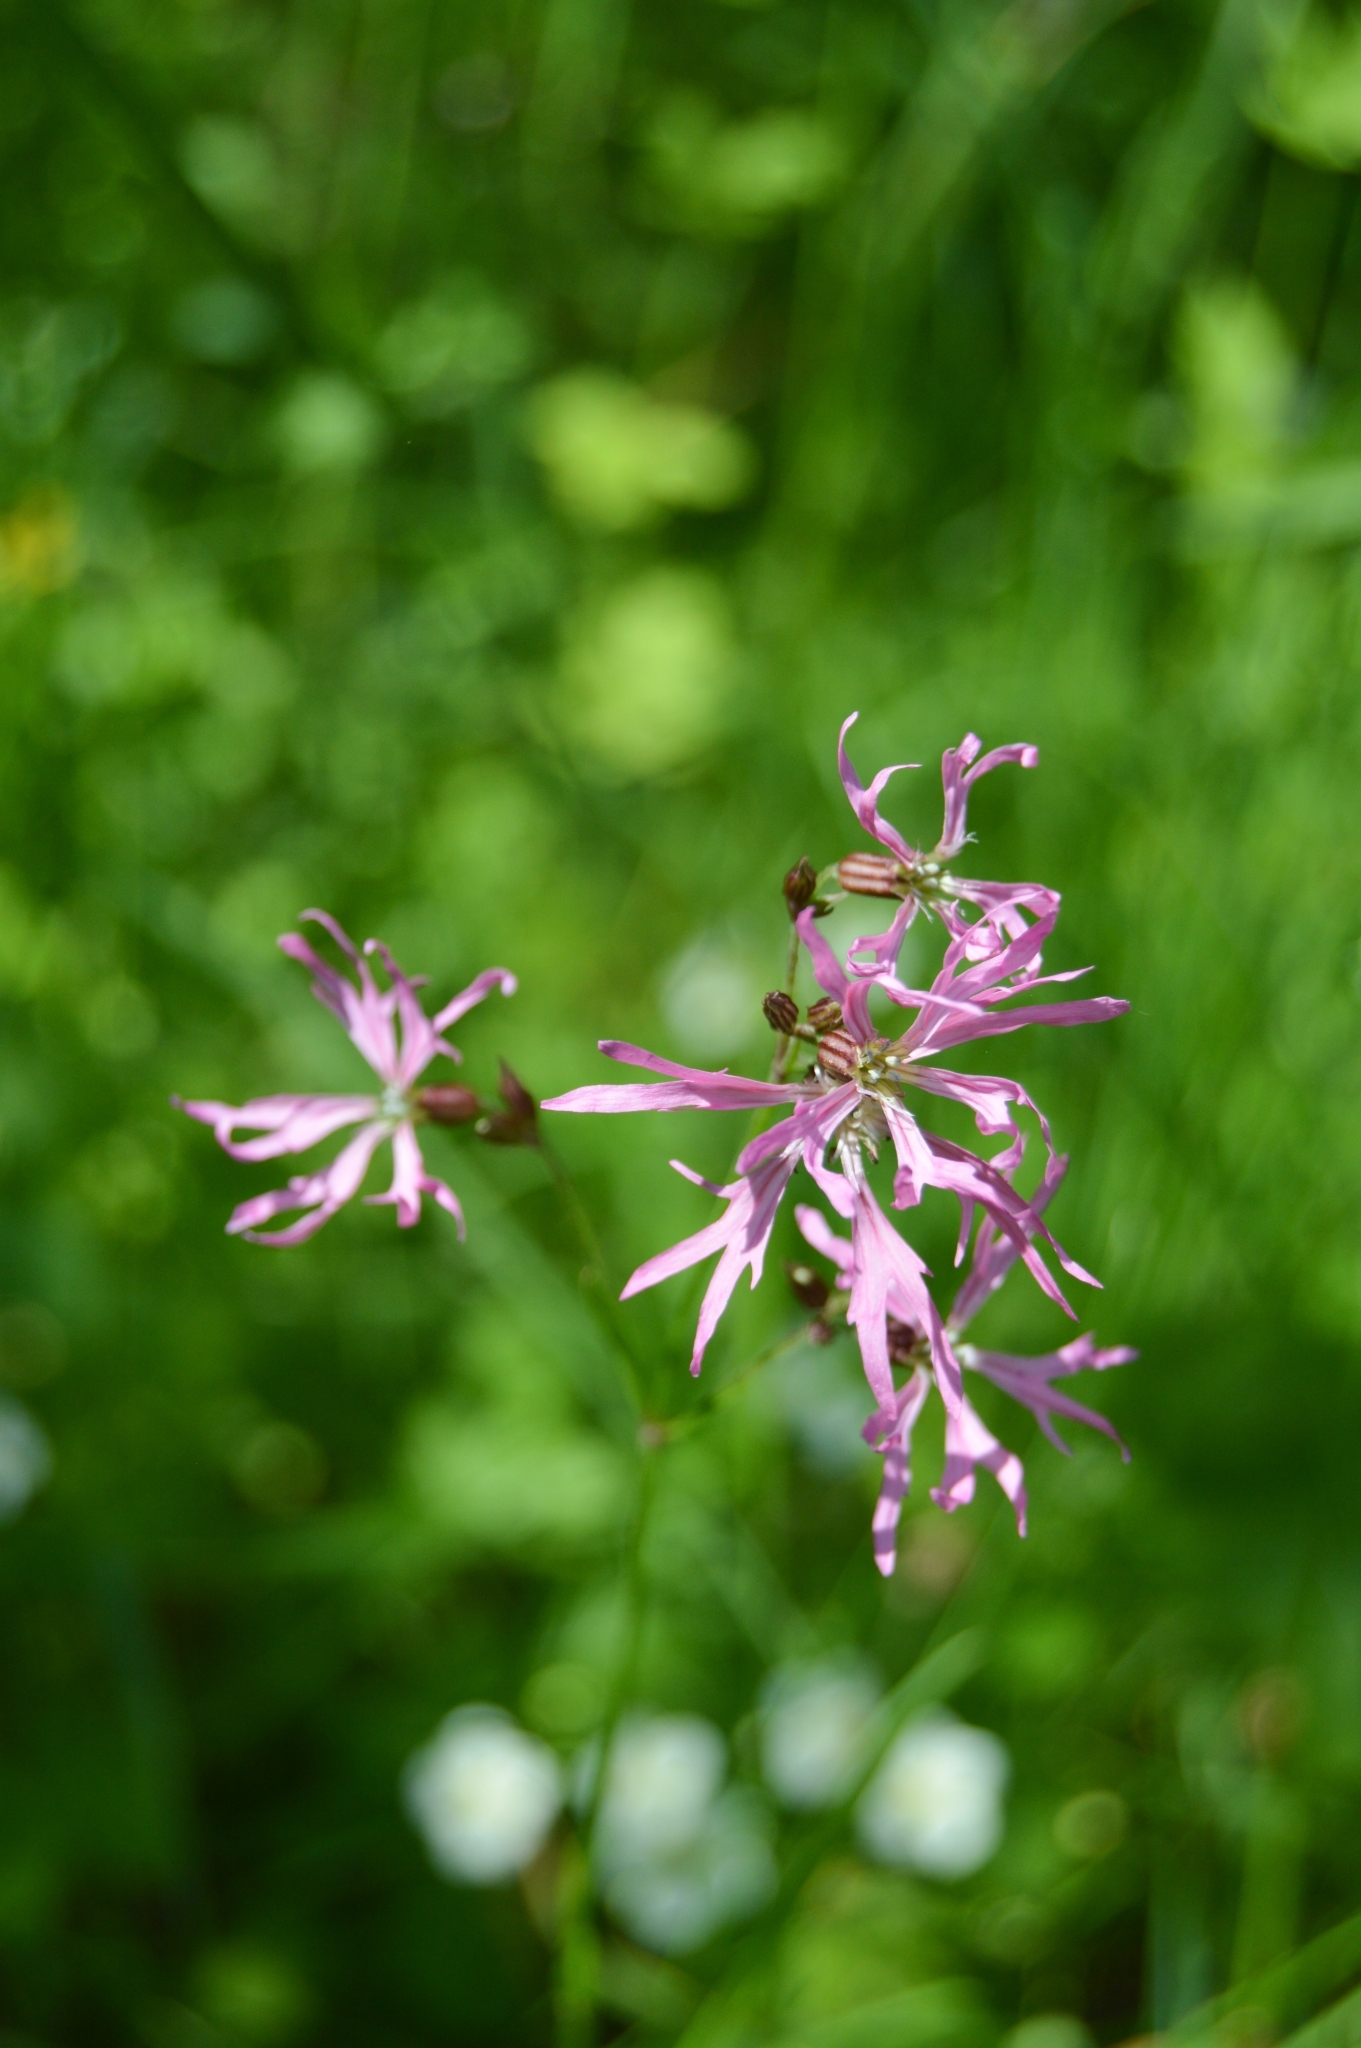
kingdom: Plantae
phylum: Tracheophyta
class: Magnoliopsida
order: Caryophyllales
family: Caryophyllaceae
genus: Silene
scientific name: Silene flos-cuculi
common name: Ragged-robin
